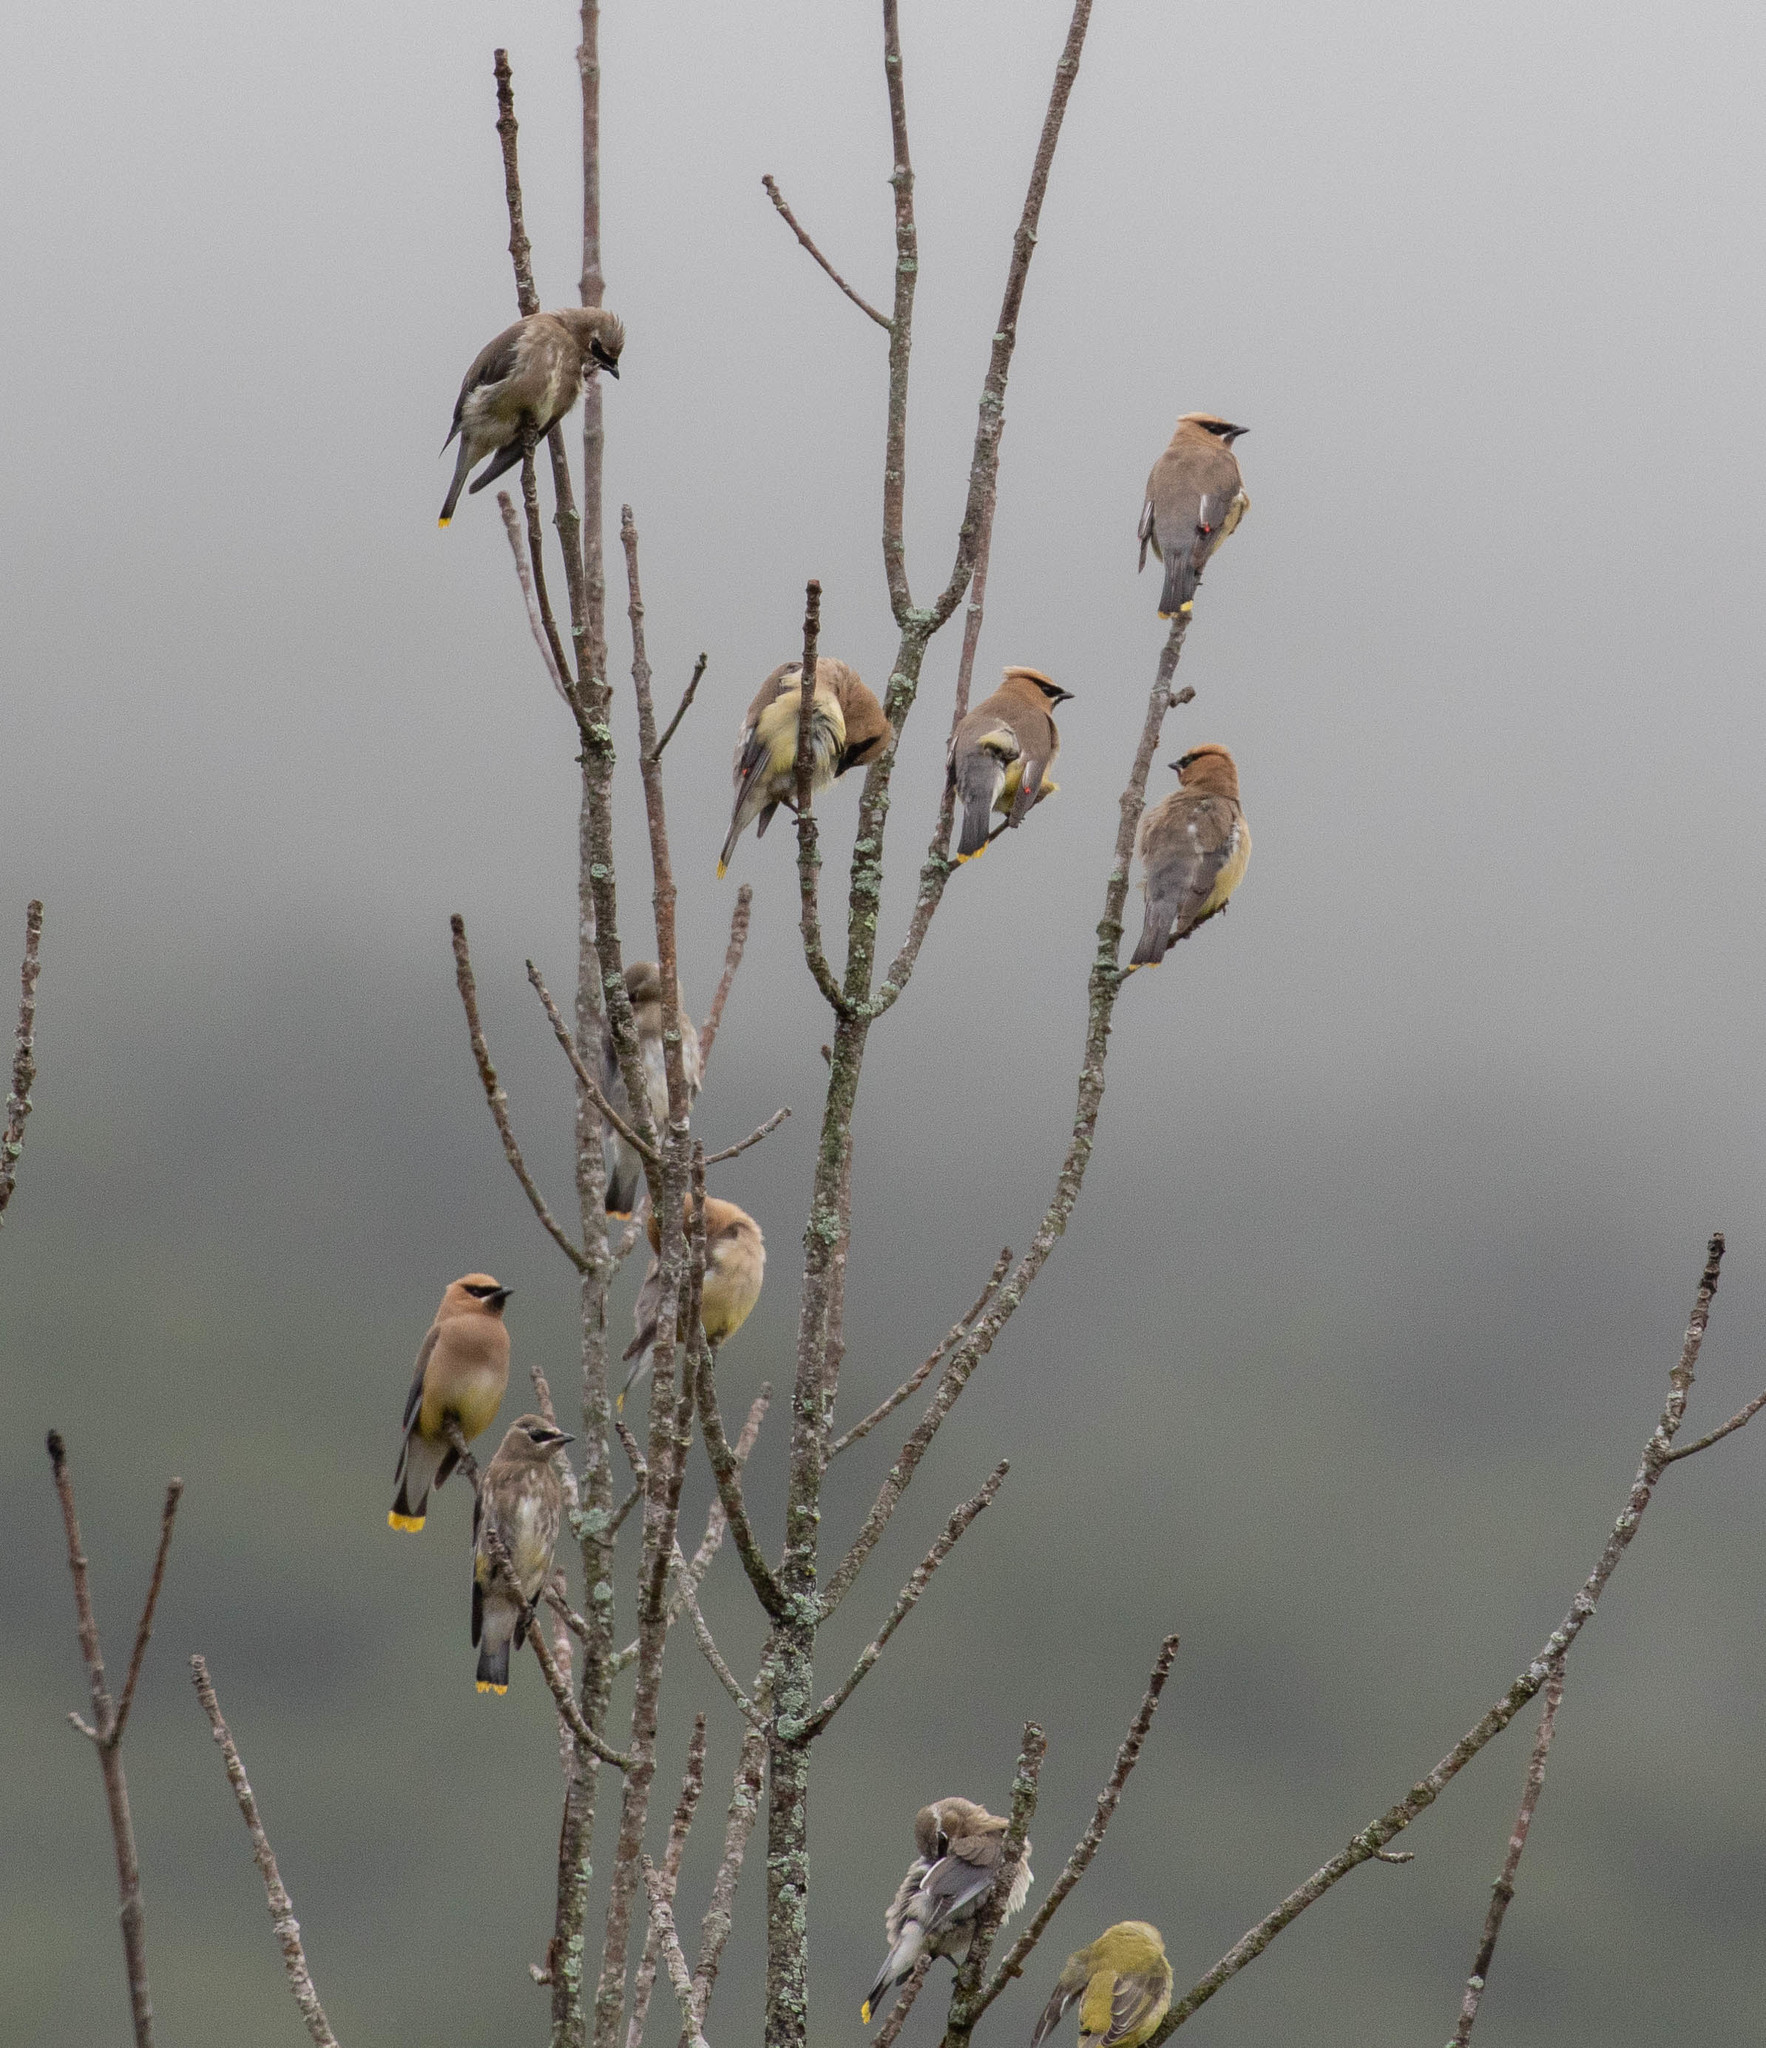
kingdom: Animalia
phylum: Chordata
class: Aves
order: Passeriformes
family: Bombycillidae
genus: Bombycilla
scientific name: Bombycilla cedrorum
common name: Cedar waxwing
